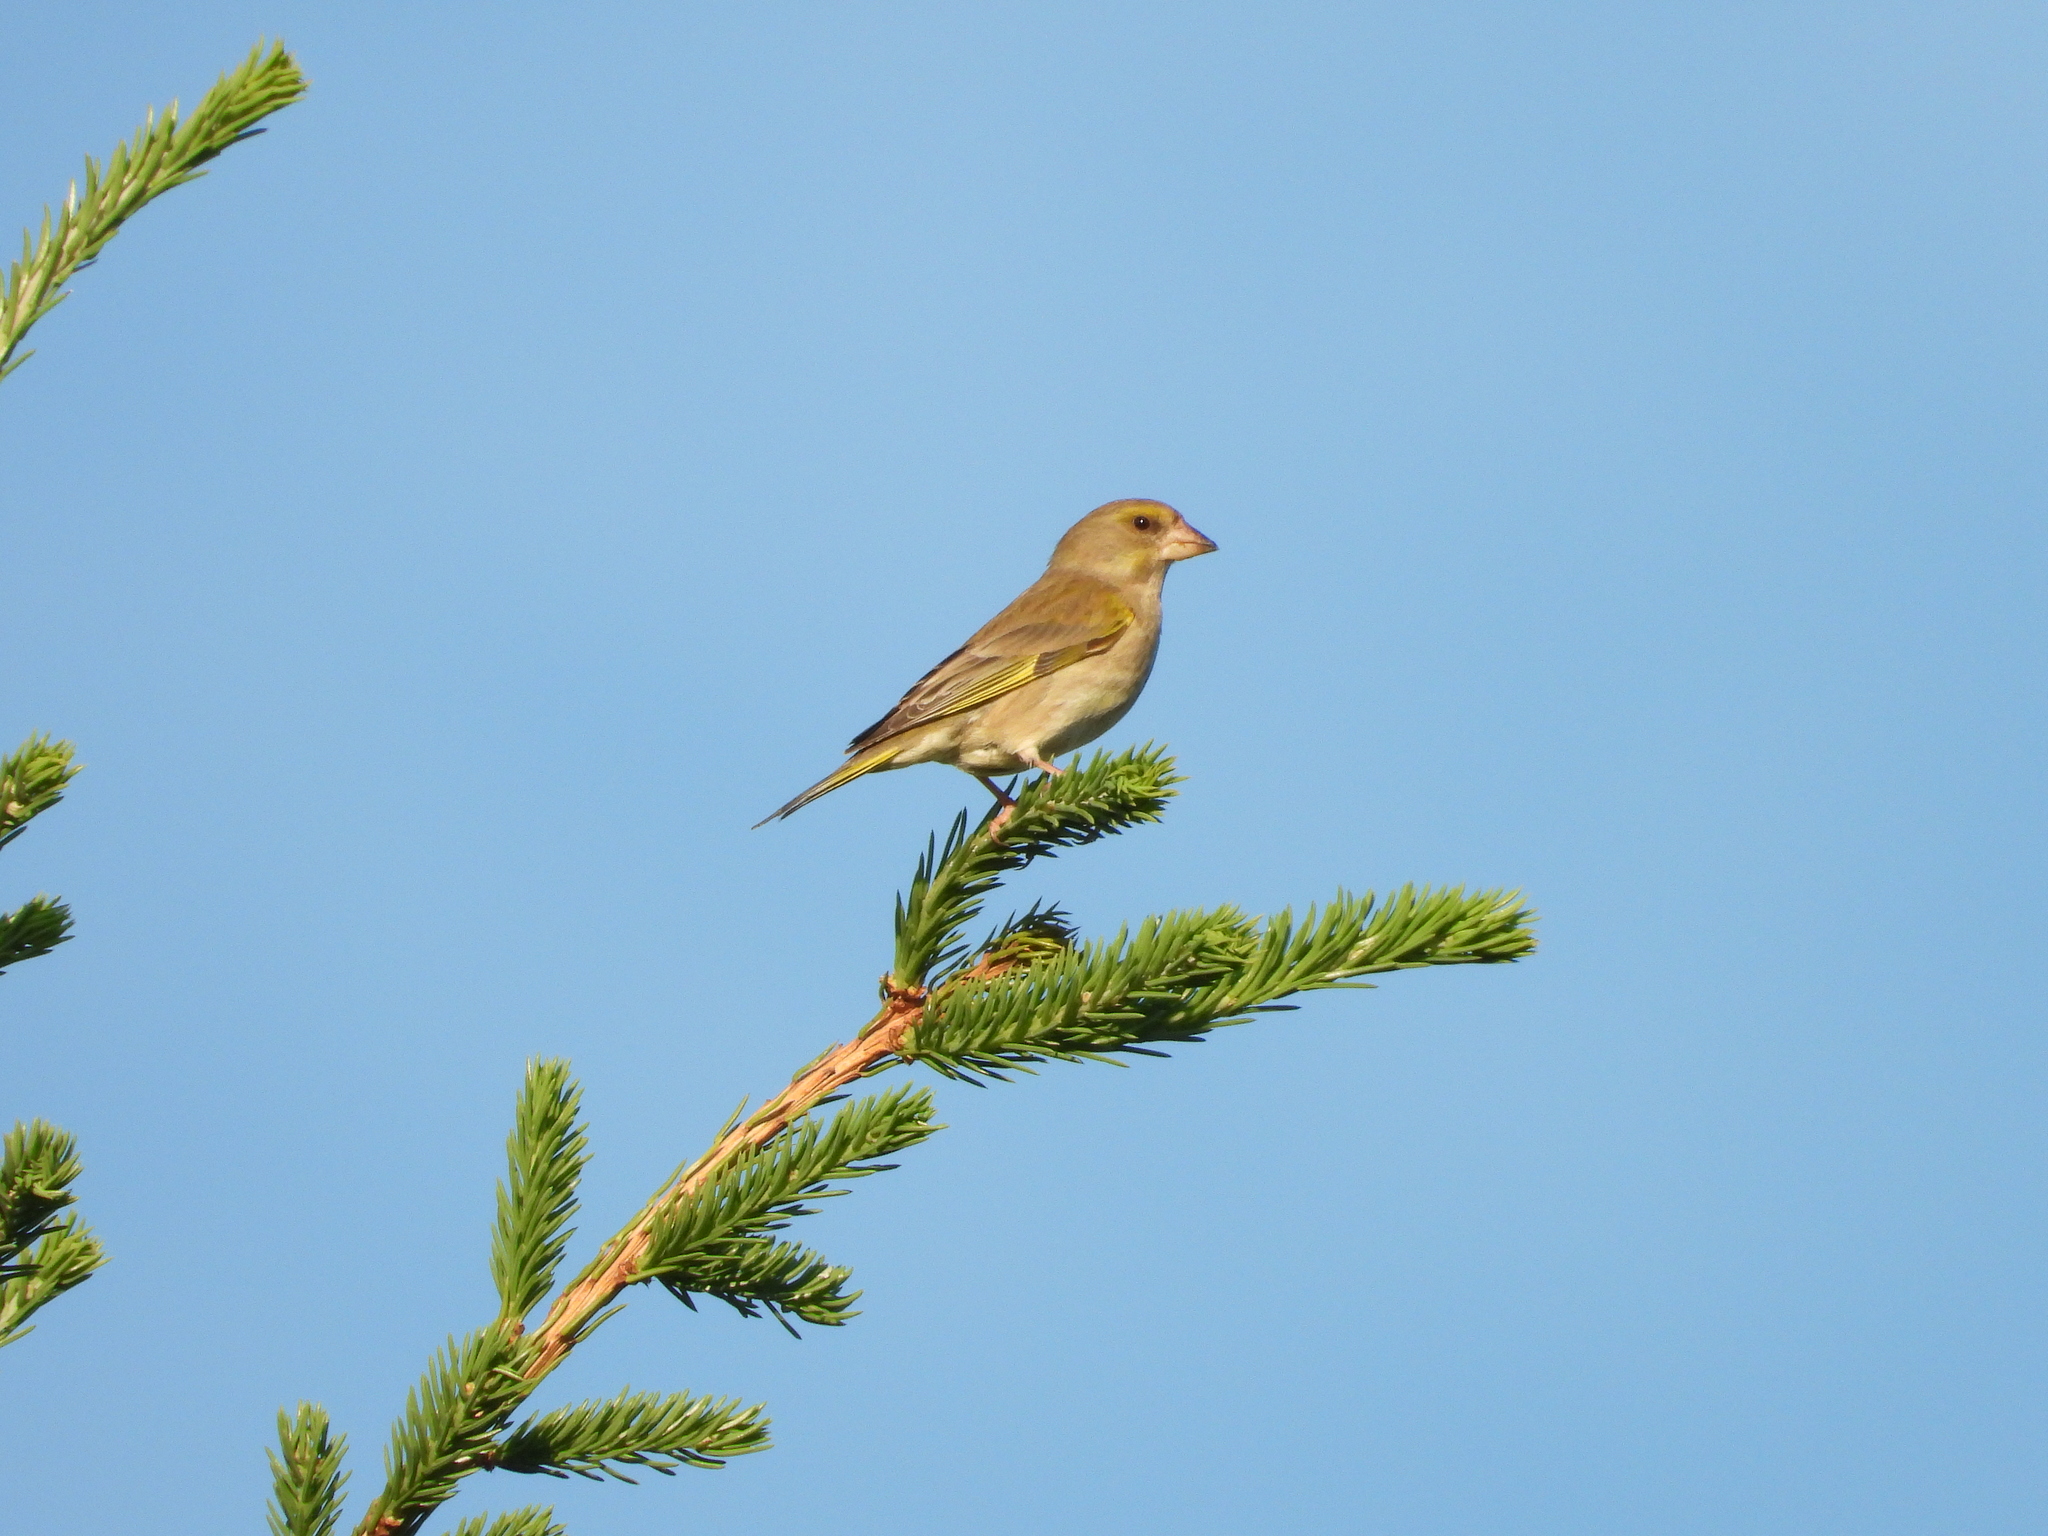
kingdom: Plantae
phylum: Tracheophyta
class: Liliopsida
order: Poales
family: Poaceae
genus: Chloris
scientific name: Chloris chloris
